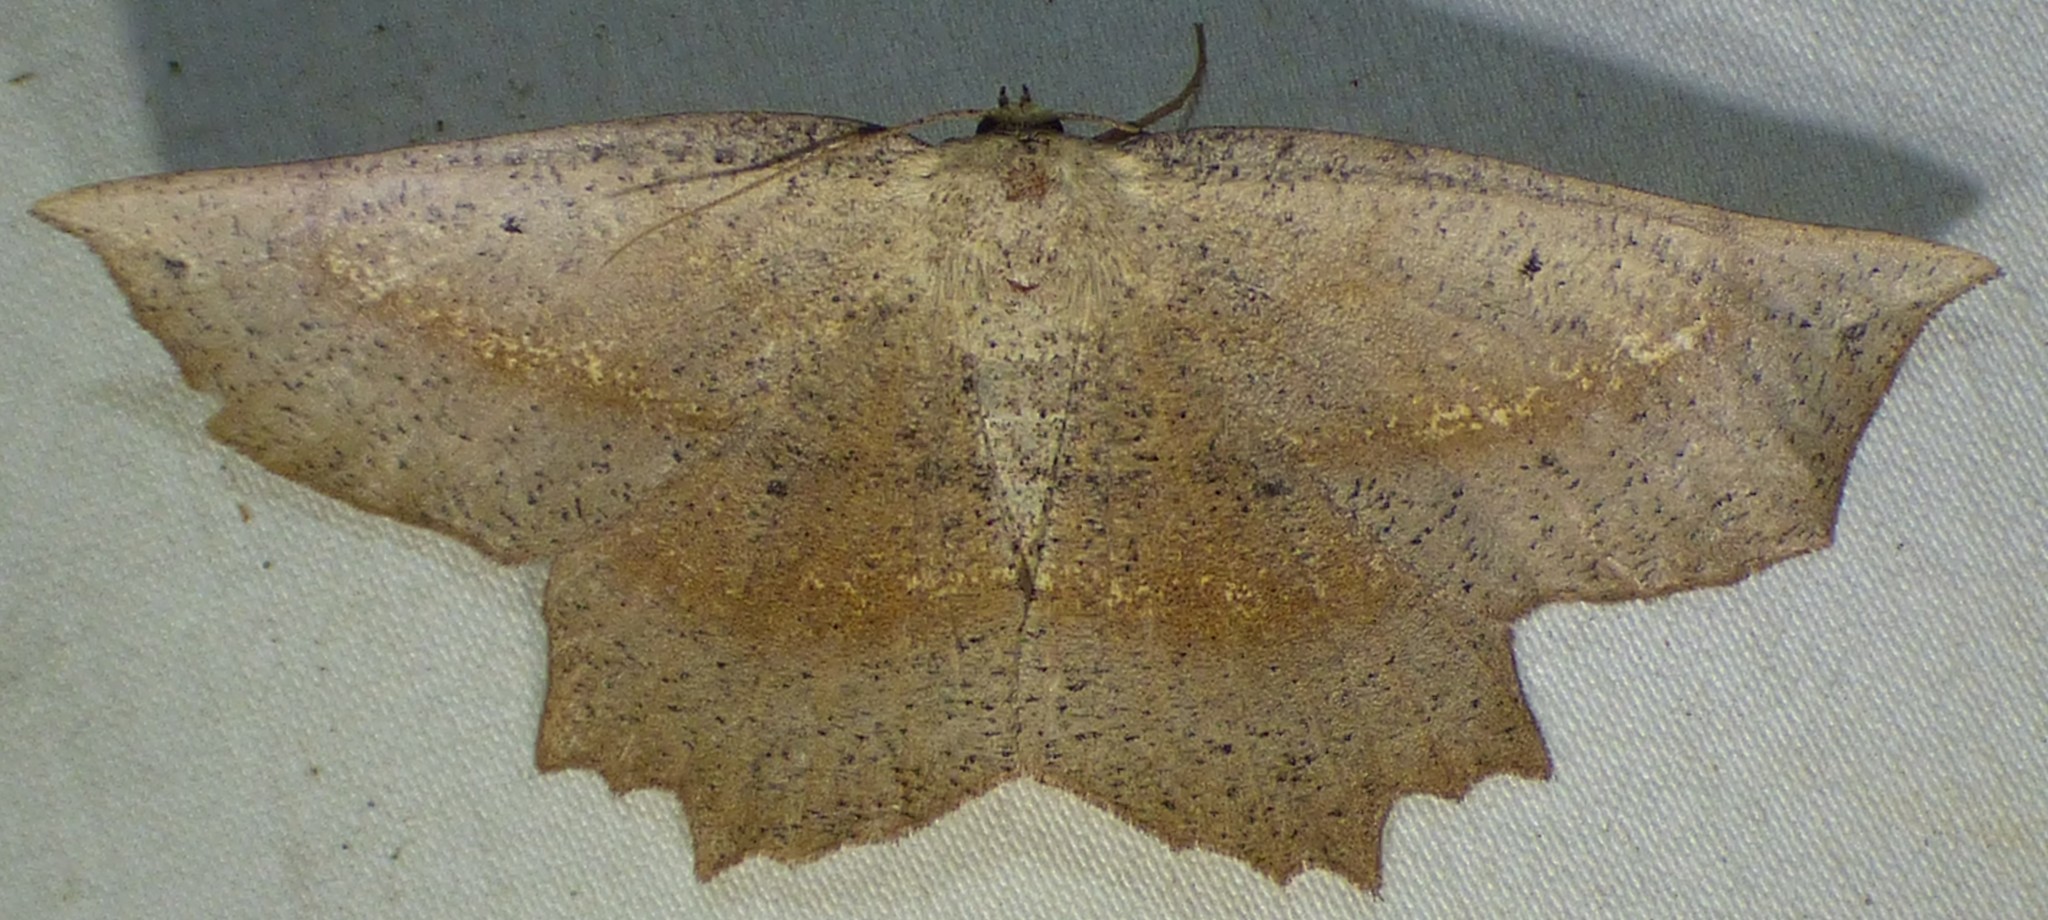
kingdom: Animalia
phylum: Arthropoda
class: Insecta
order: Lepidoptera
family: Geometridae
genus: Euchlaena
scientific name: Euchlaena obtusaria
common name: Obtuse euchlaena moth
